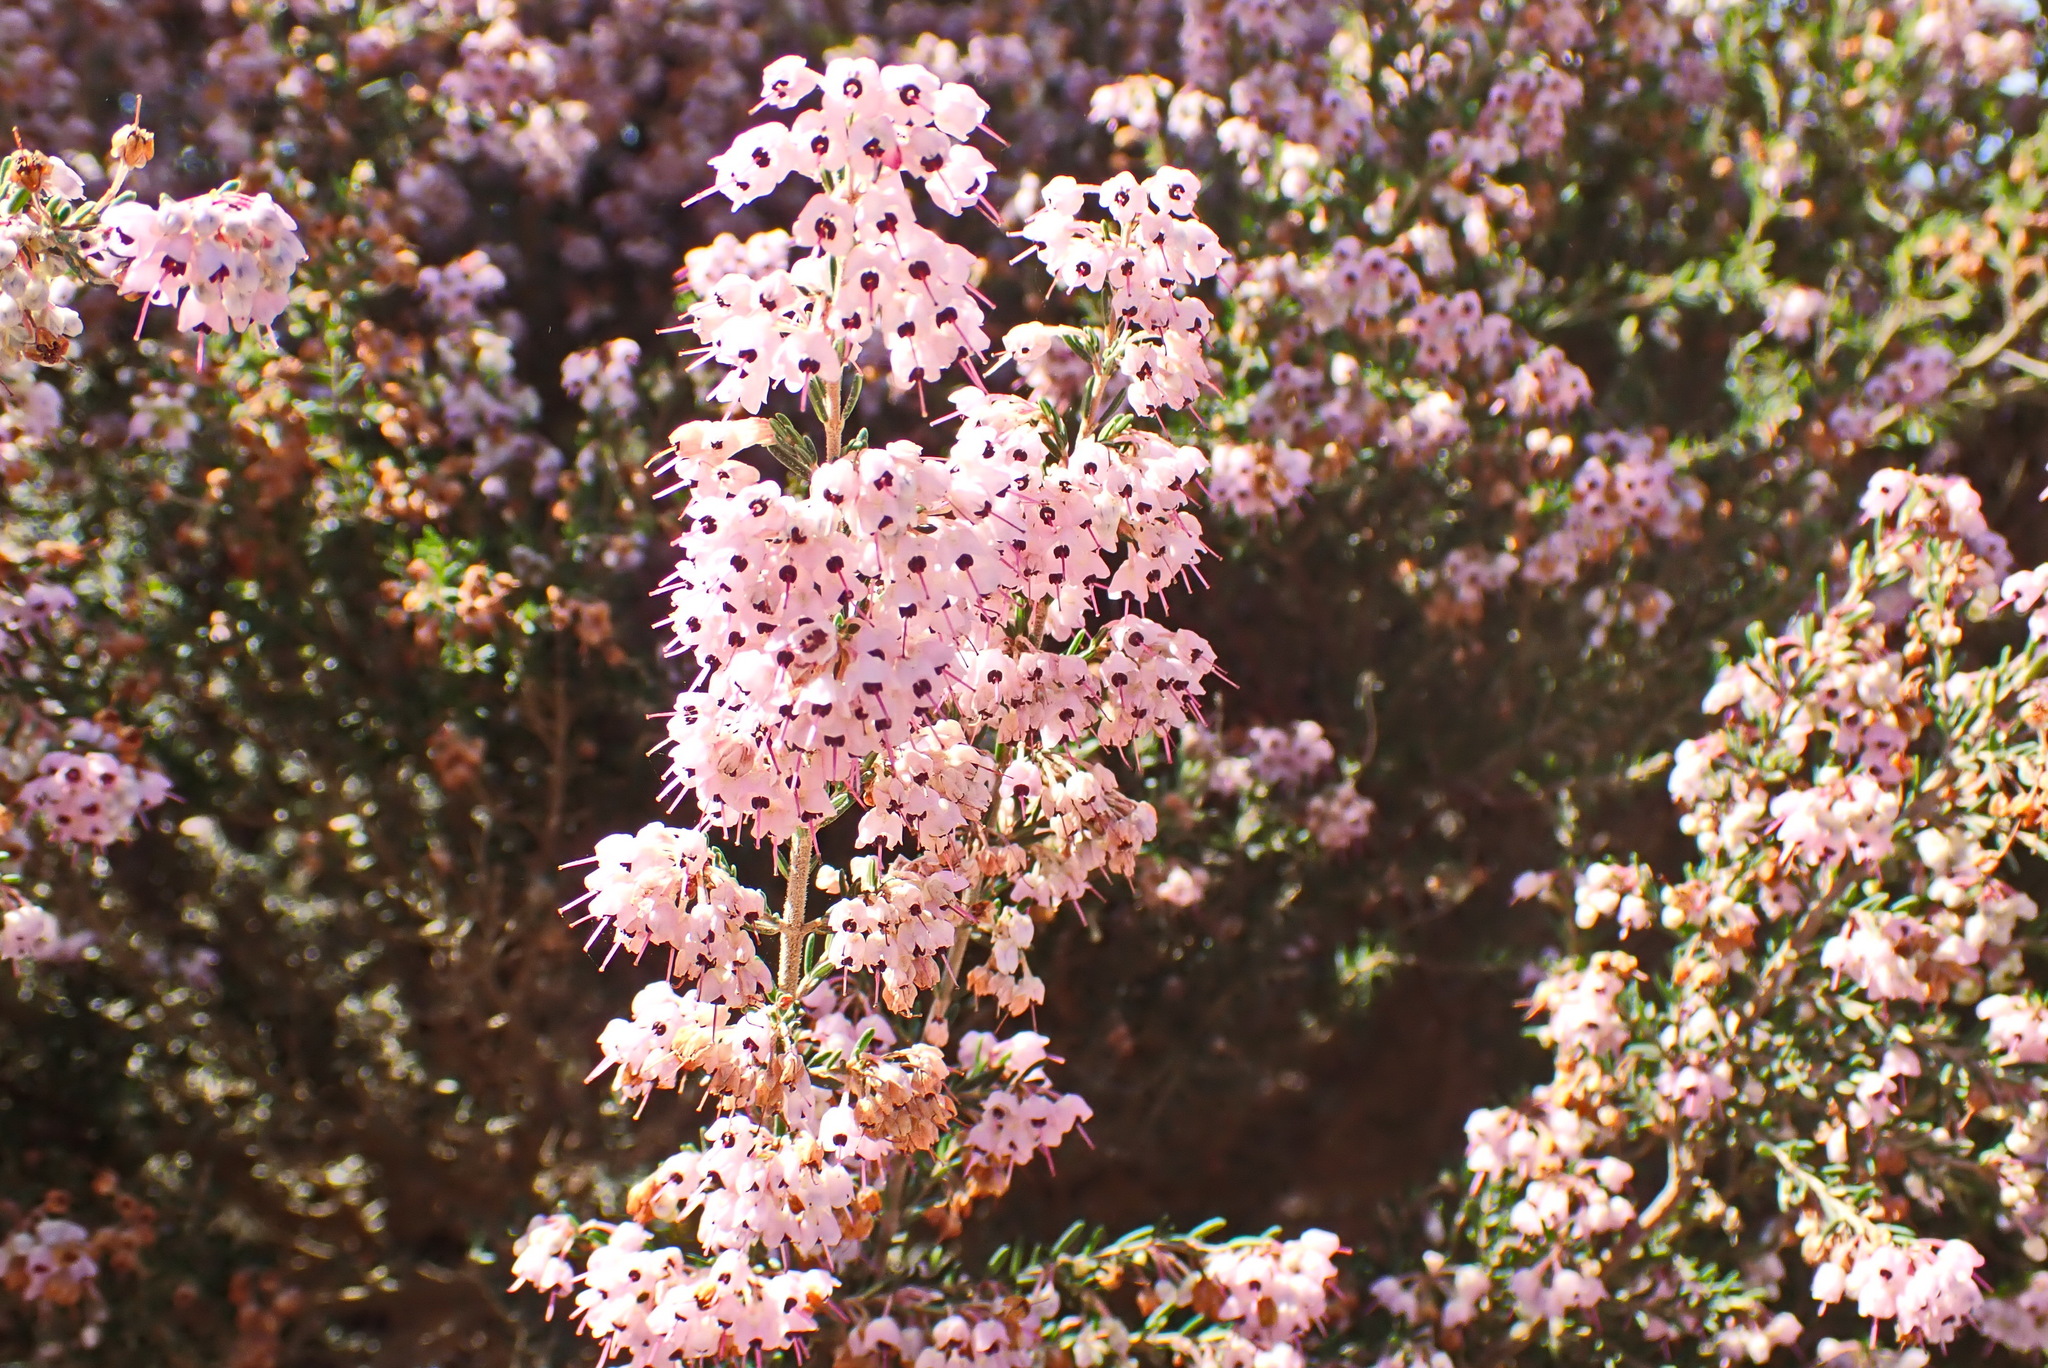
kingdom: Plantae
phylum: Tracheophyta
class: Magnoliopsida
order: Ericales
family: Ericaceae
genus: Erica
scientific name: Erica canaliculata
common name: Hairy grey heather
